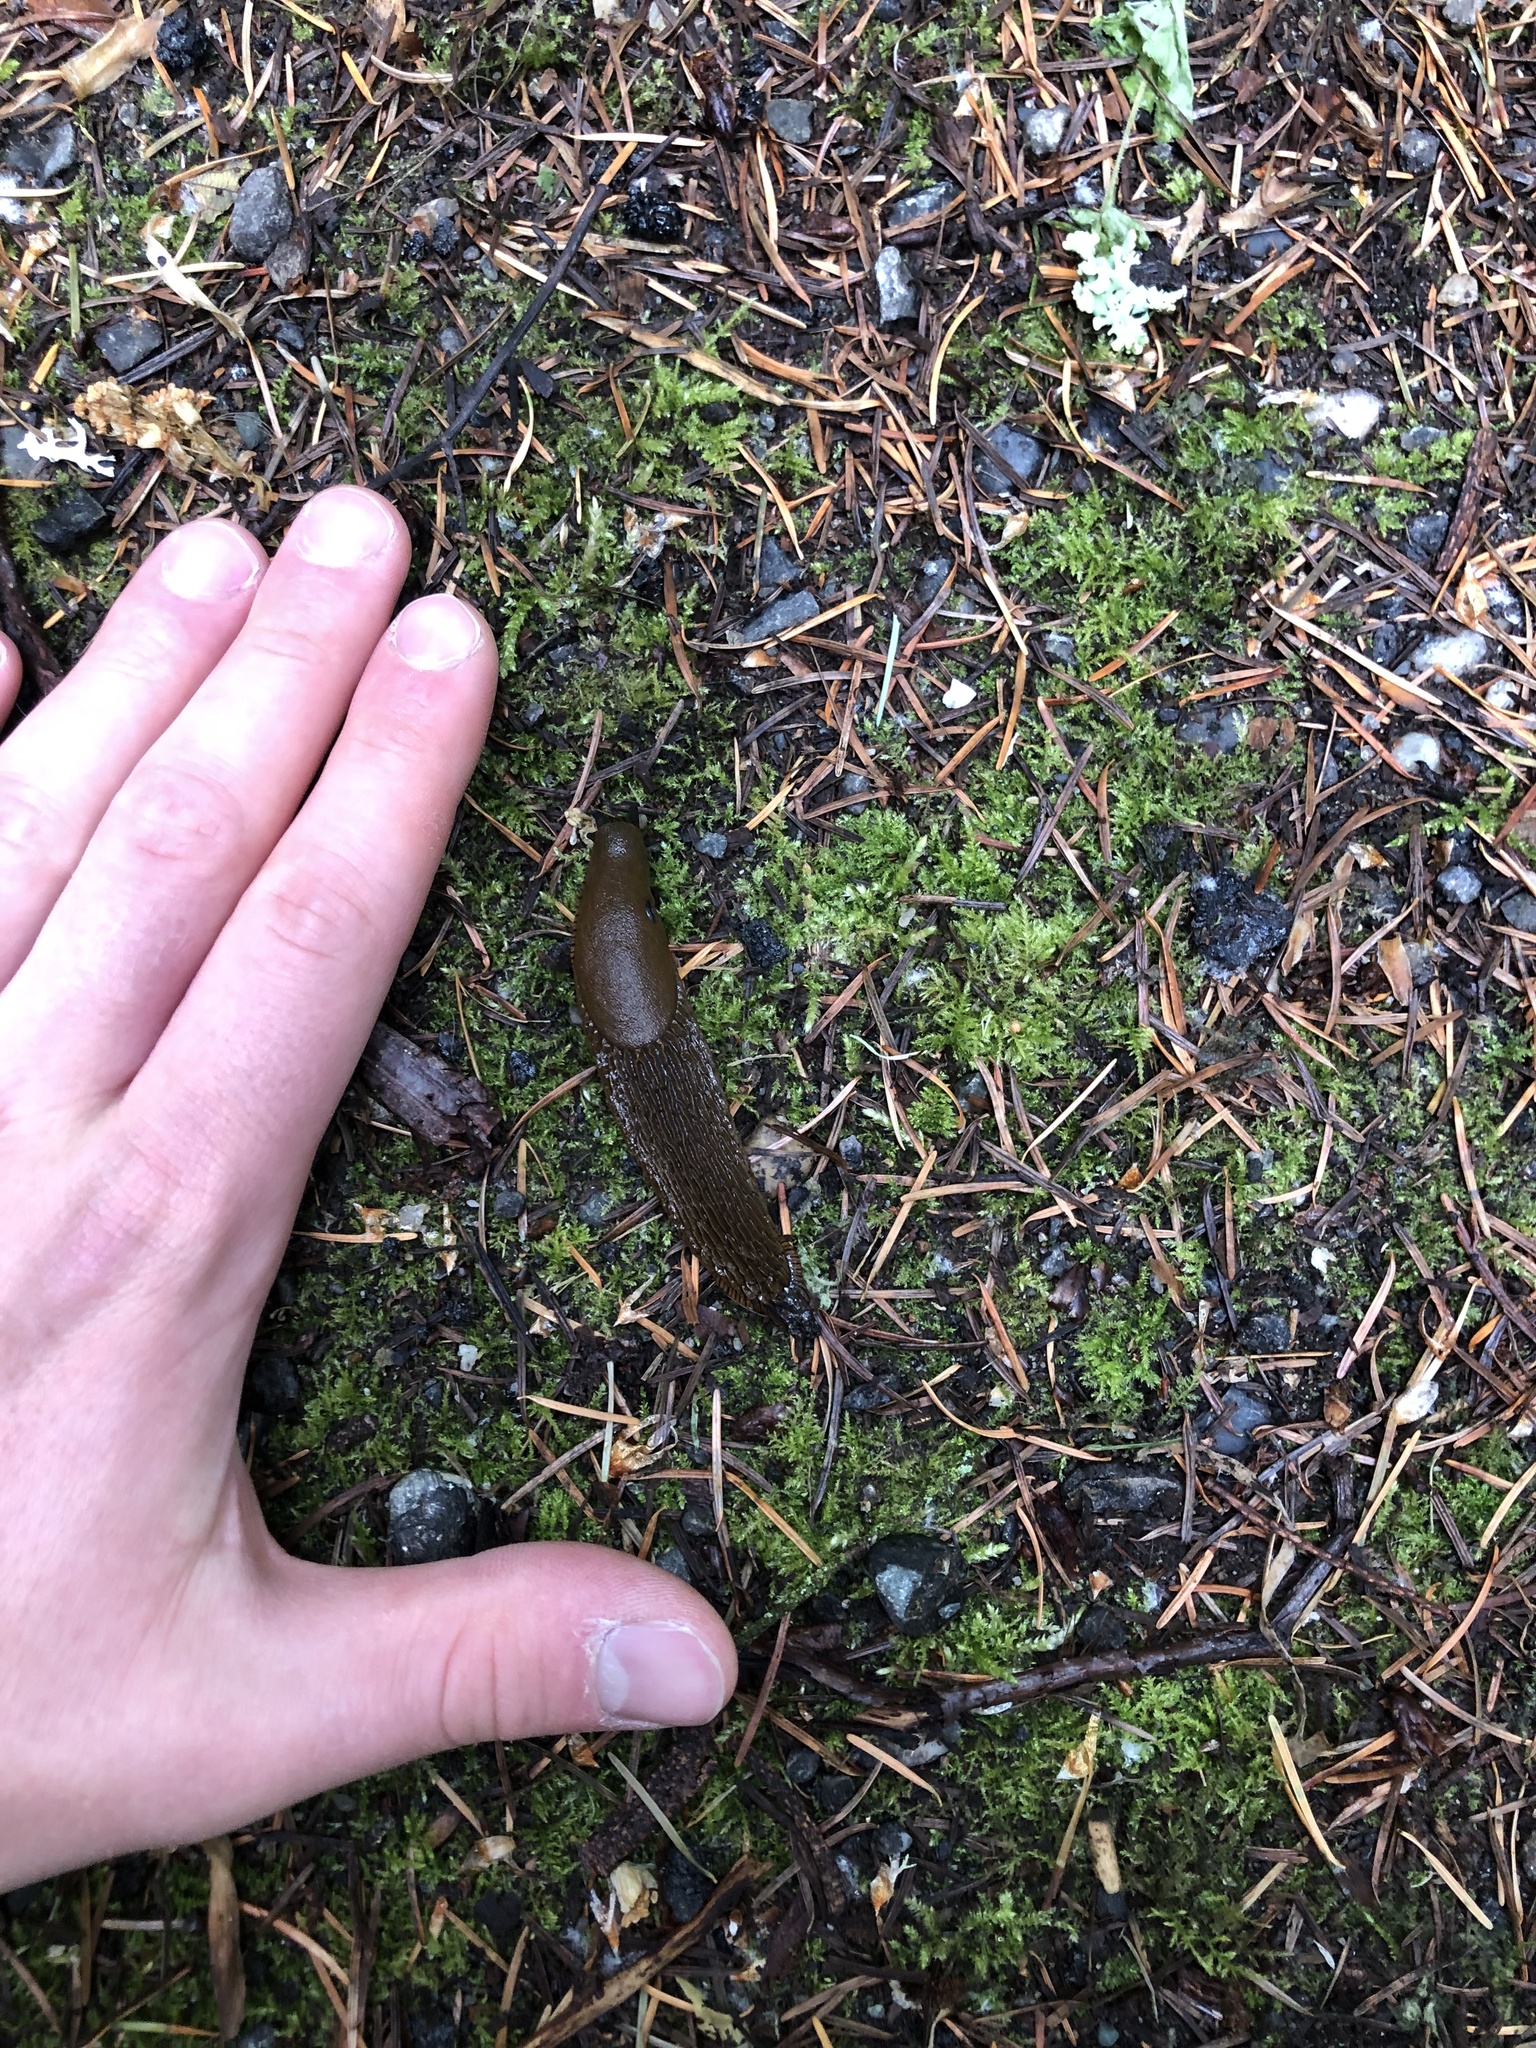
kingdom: Animalia
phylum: Mollusca
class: Gastropoda
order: Stylommatophora
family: Arionidae
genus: Arion
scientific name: Arion
